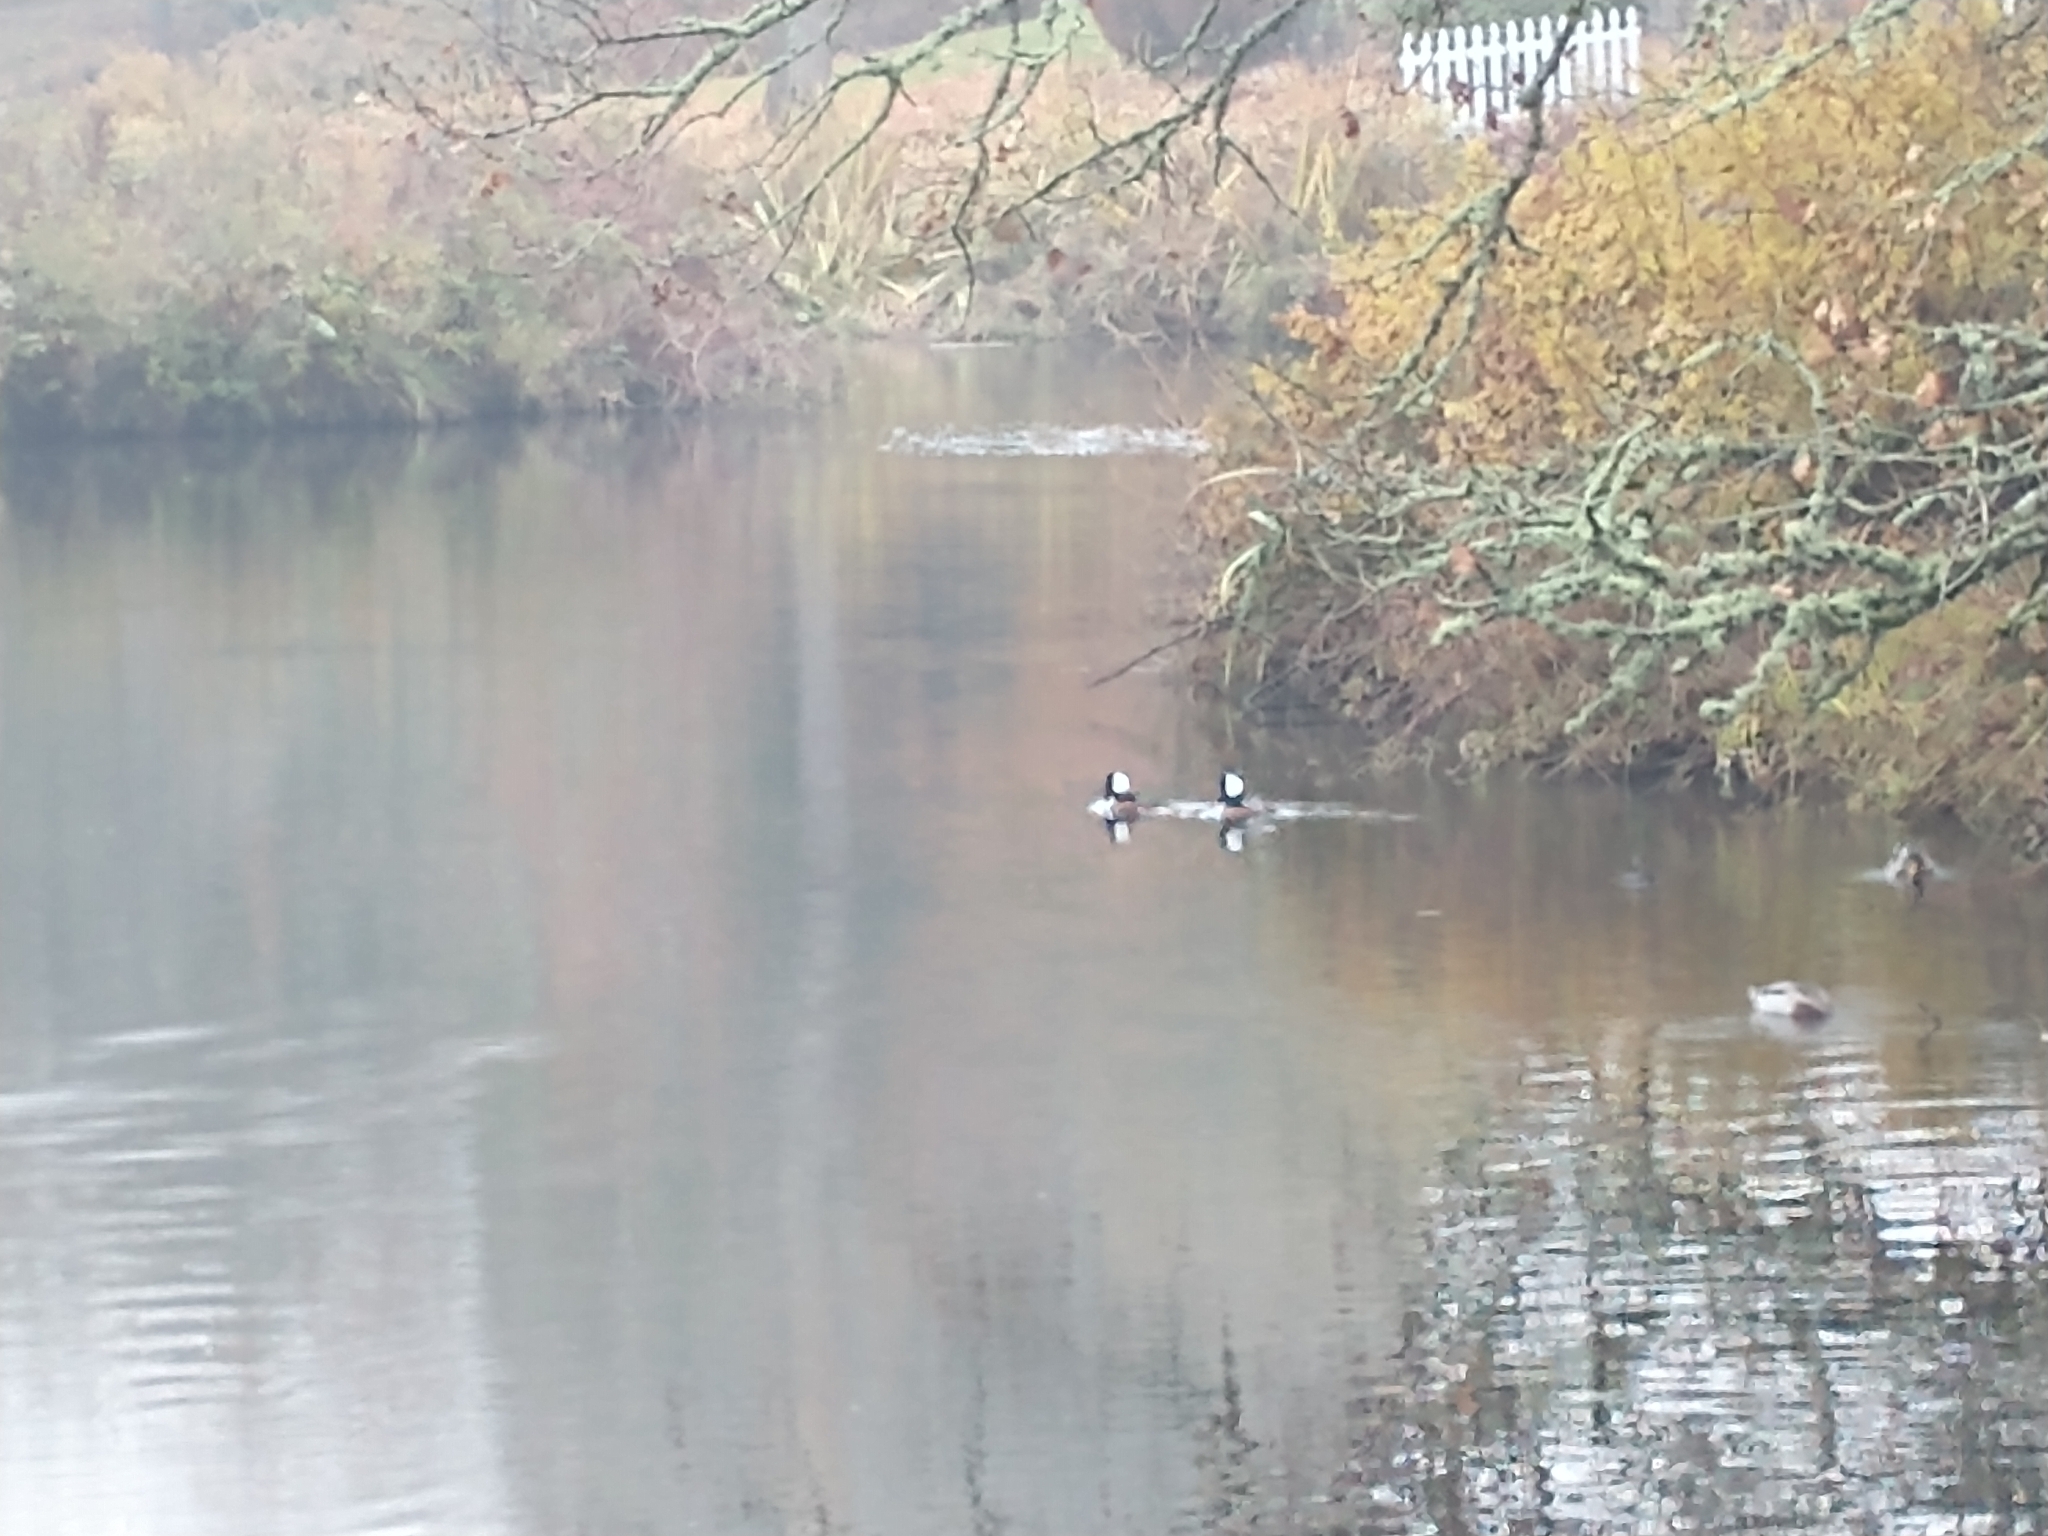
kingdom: Animalia
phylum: Chordata
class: Aves
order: Anseriformes
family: Anatidae
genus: Lophodytes
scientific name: Lophodytes cucullatus
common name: Hooded merganser
